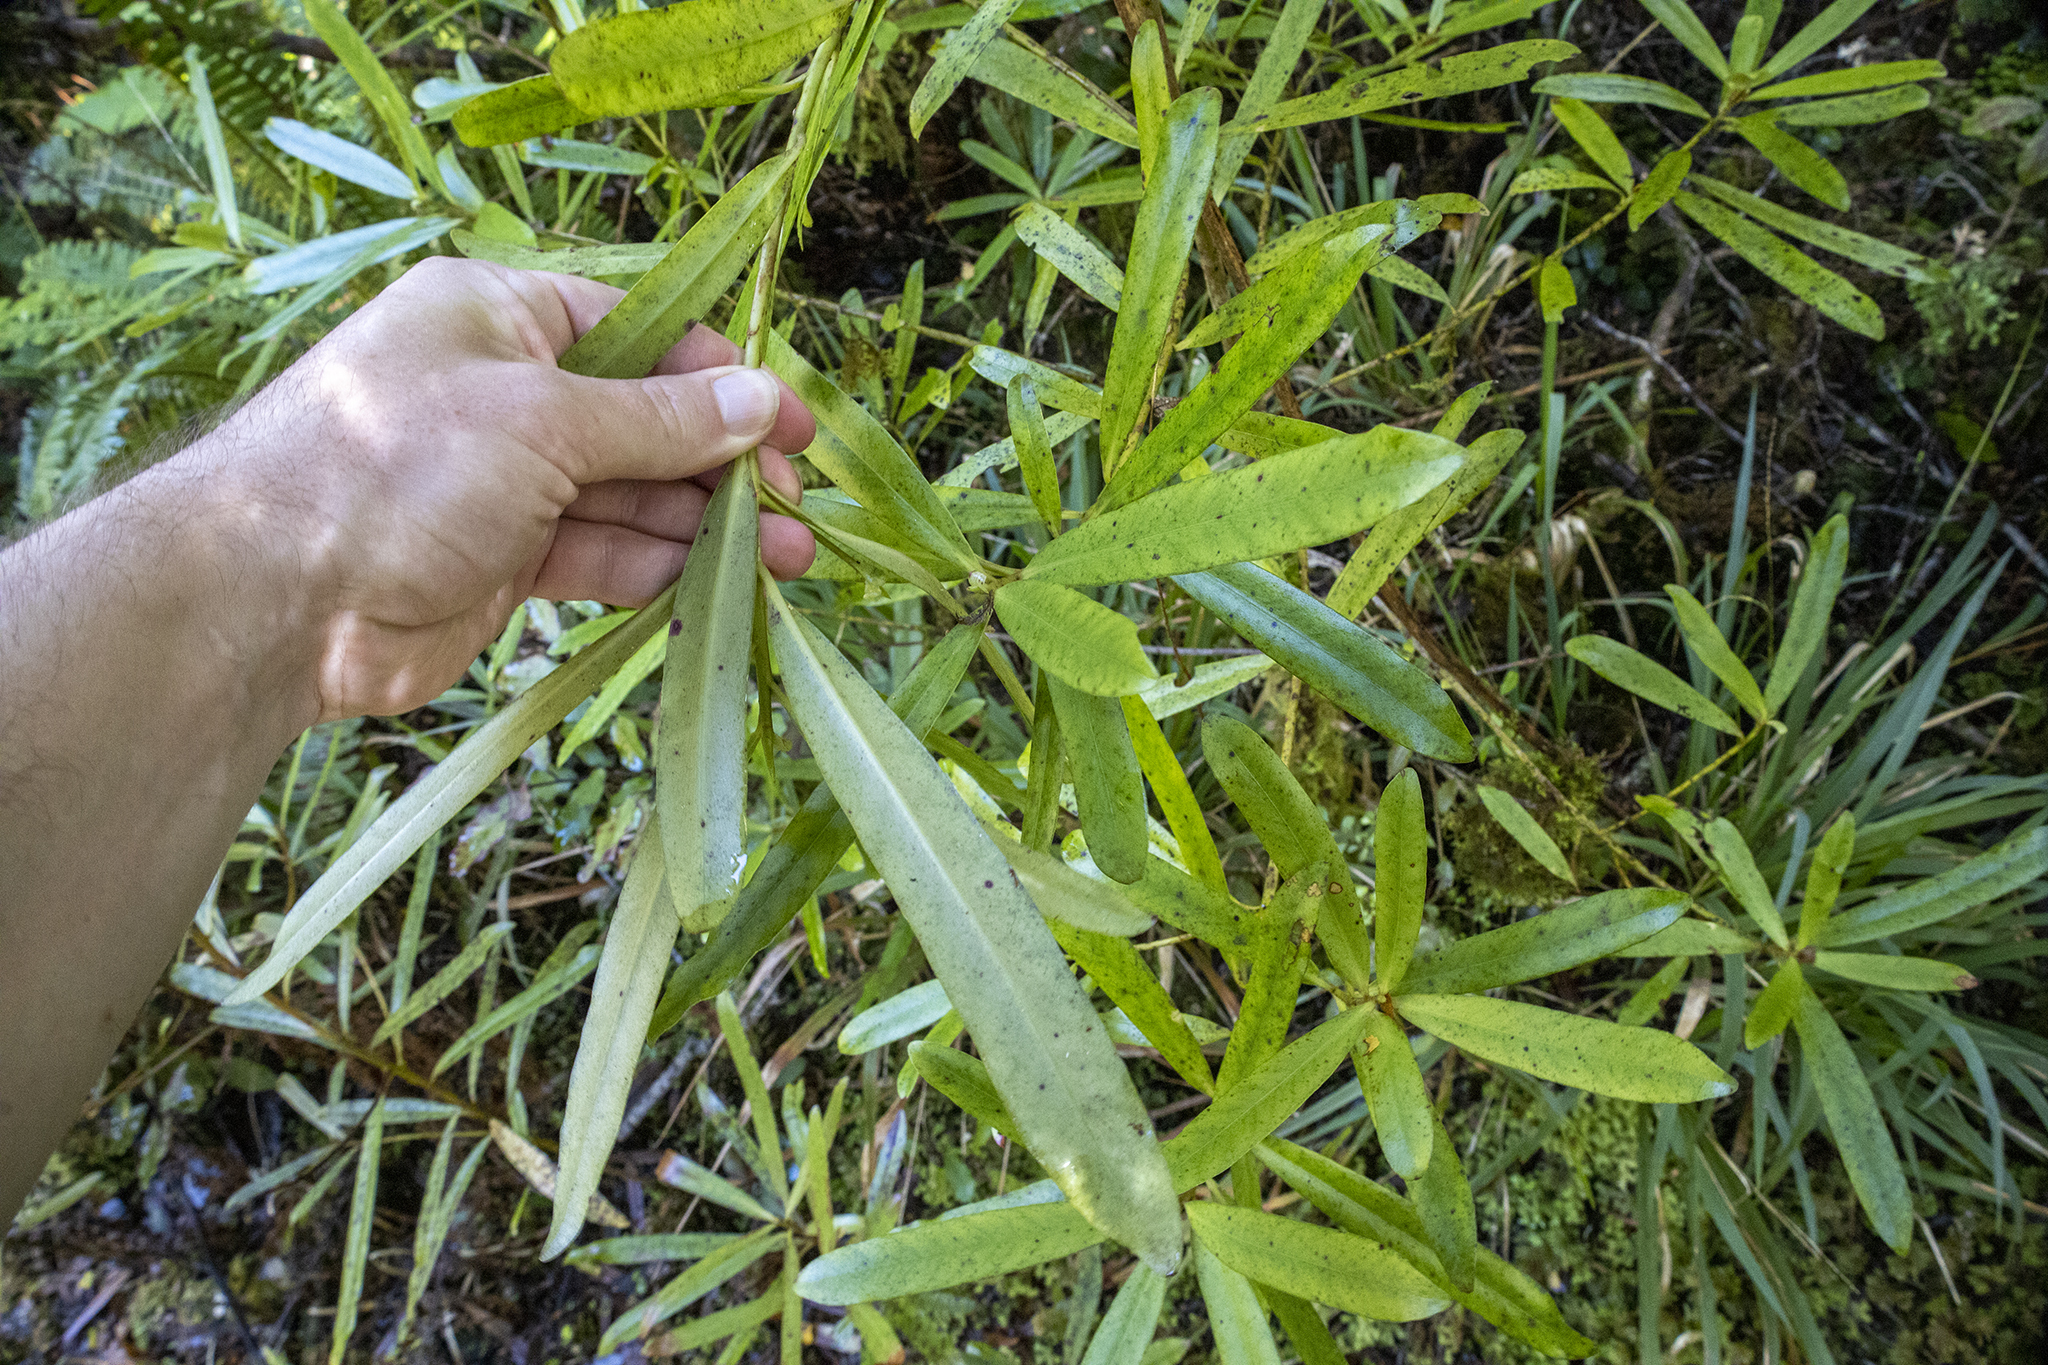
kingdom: Plantae
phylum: Tracheophyta
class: Magnoliopsida
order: Ericales
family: Primulaceae
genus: Myrsine
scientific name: Myrsine salicina
